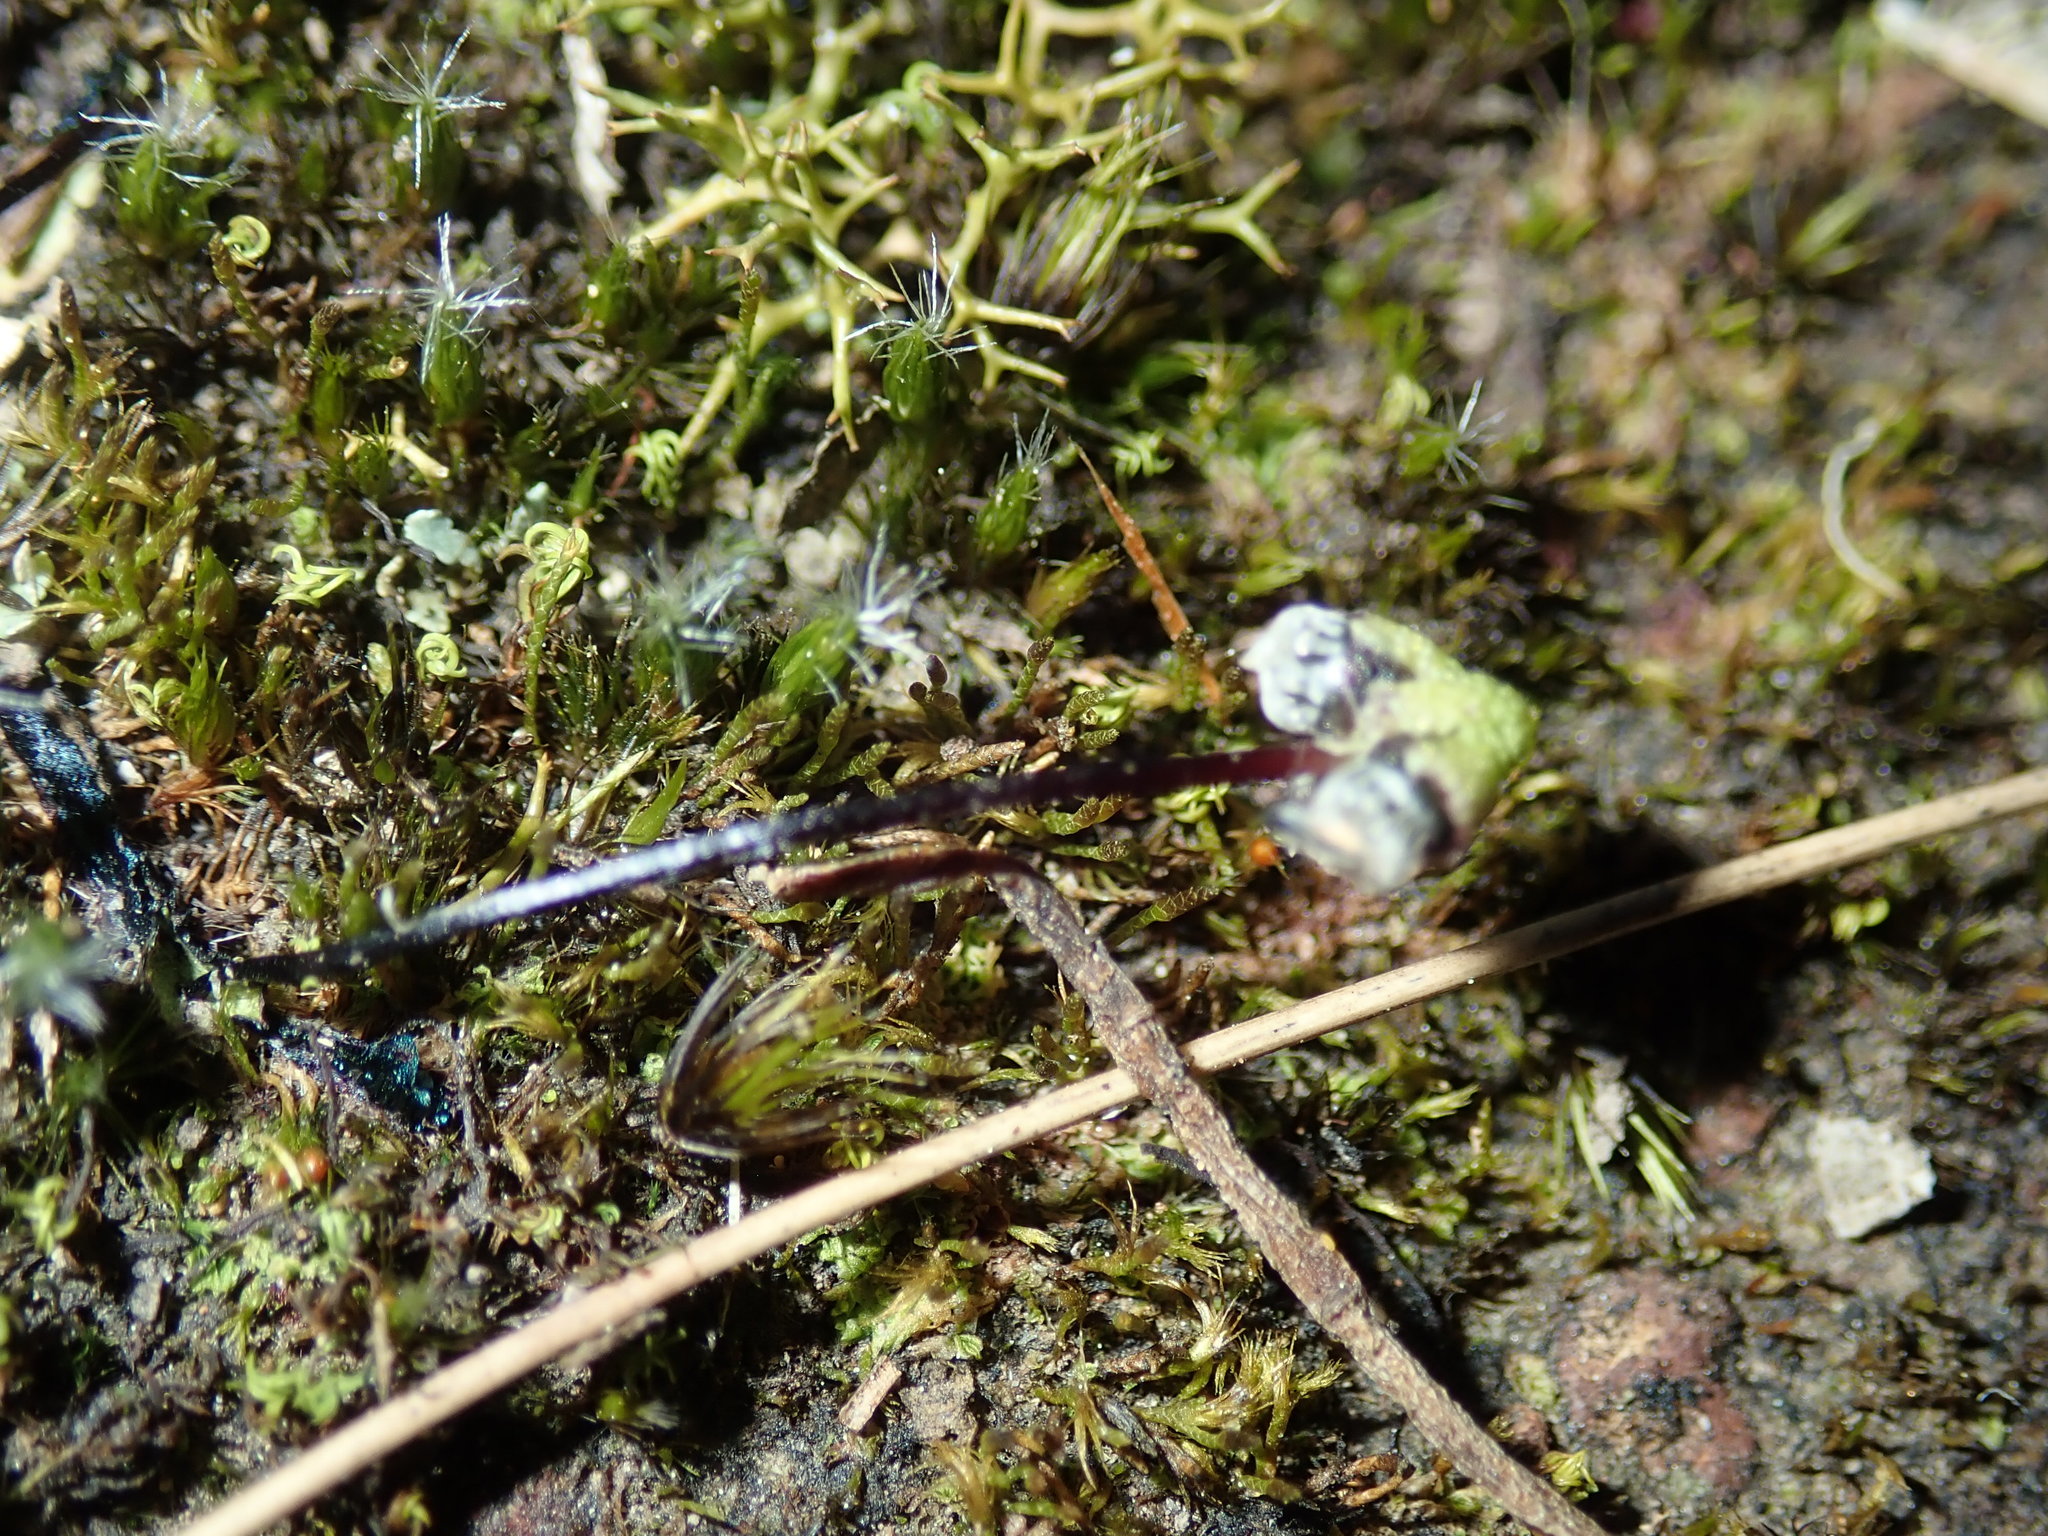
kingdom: Plantae
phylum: Bryophyta
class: Bryopsida
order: Dicranales
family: Leucobryaceae
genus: Campylopus
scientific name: Campylopus introflexus
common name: Heath star moss
